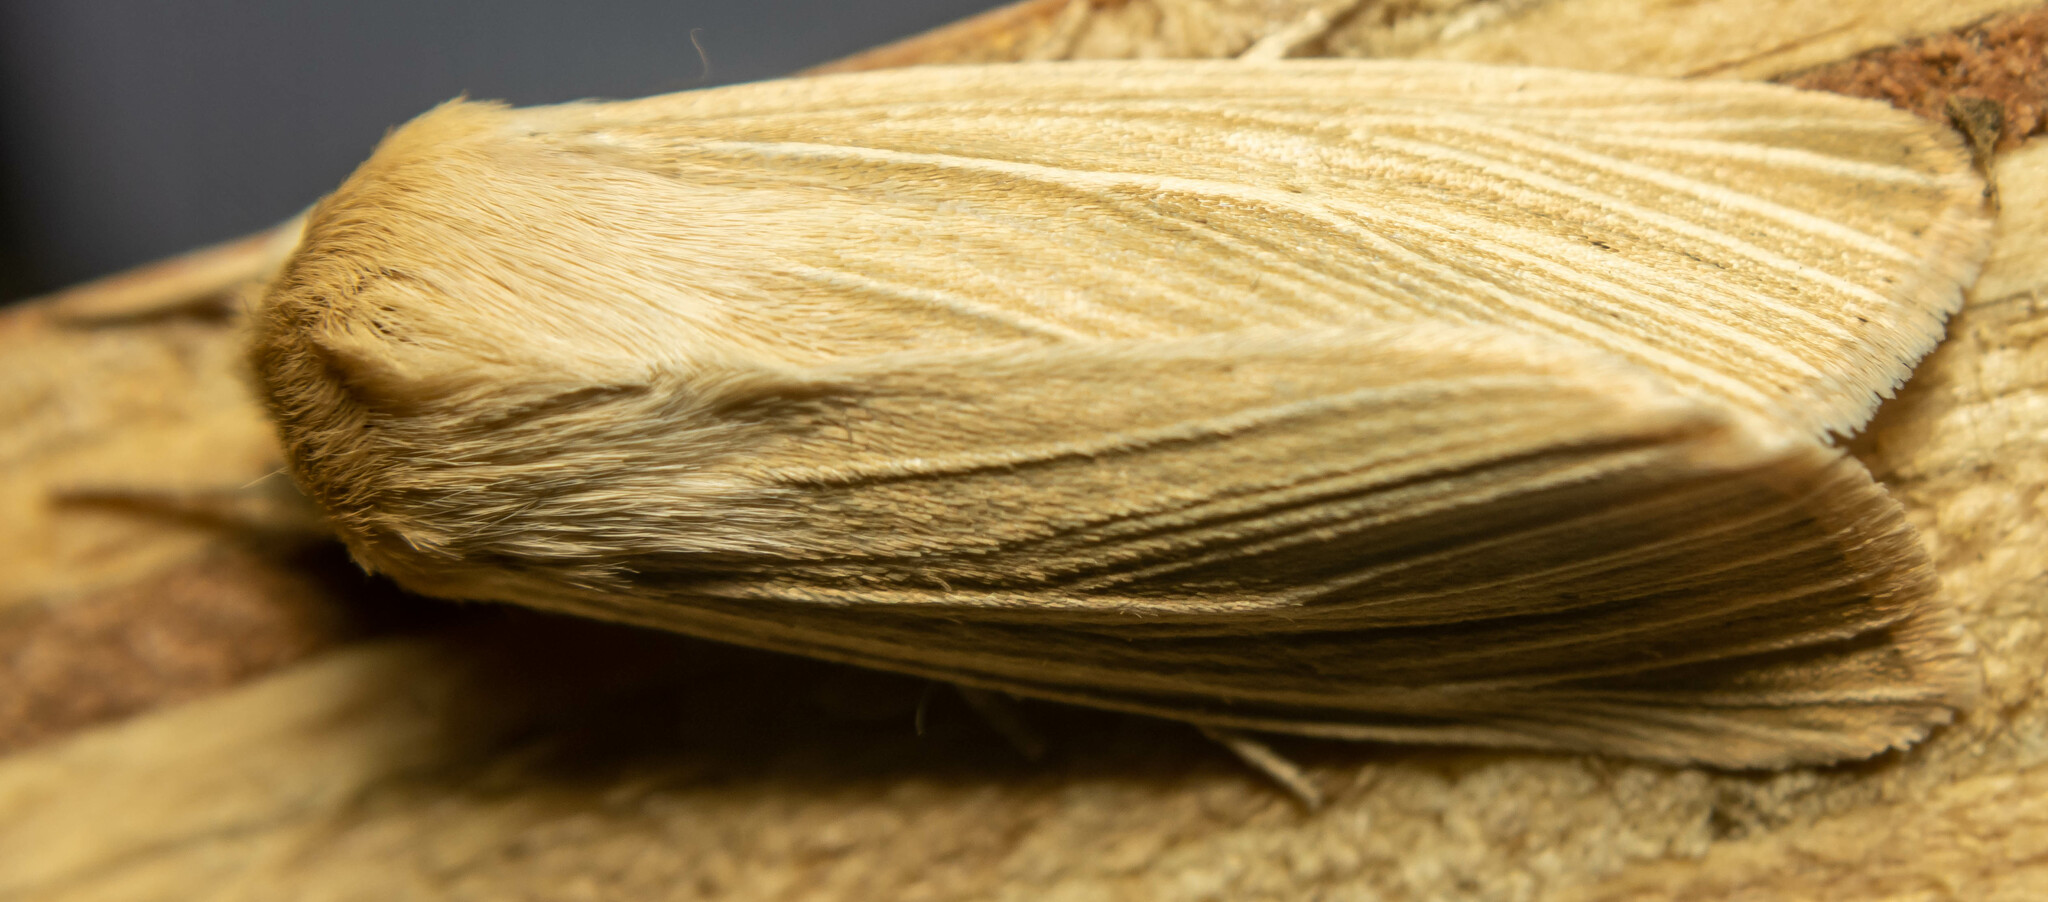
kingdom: Animalia
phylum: Arthropoda
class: Insecta
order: Lepidoptera
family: Noctuidae
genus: Mythimna
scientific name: Mythimna pallens
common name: Common wainscot
